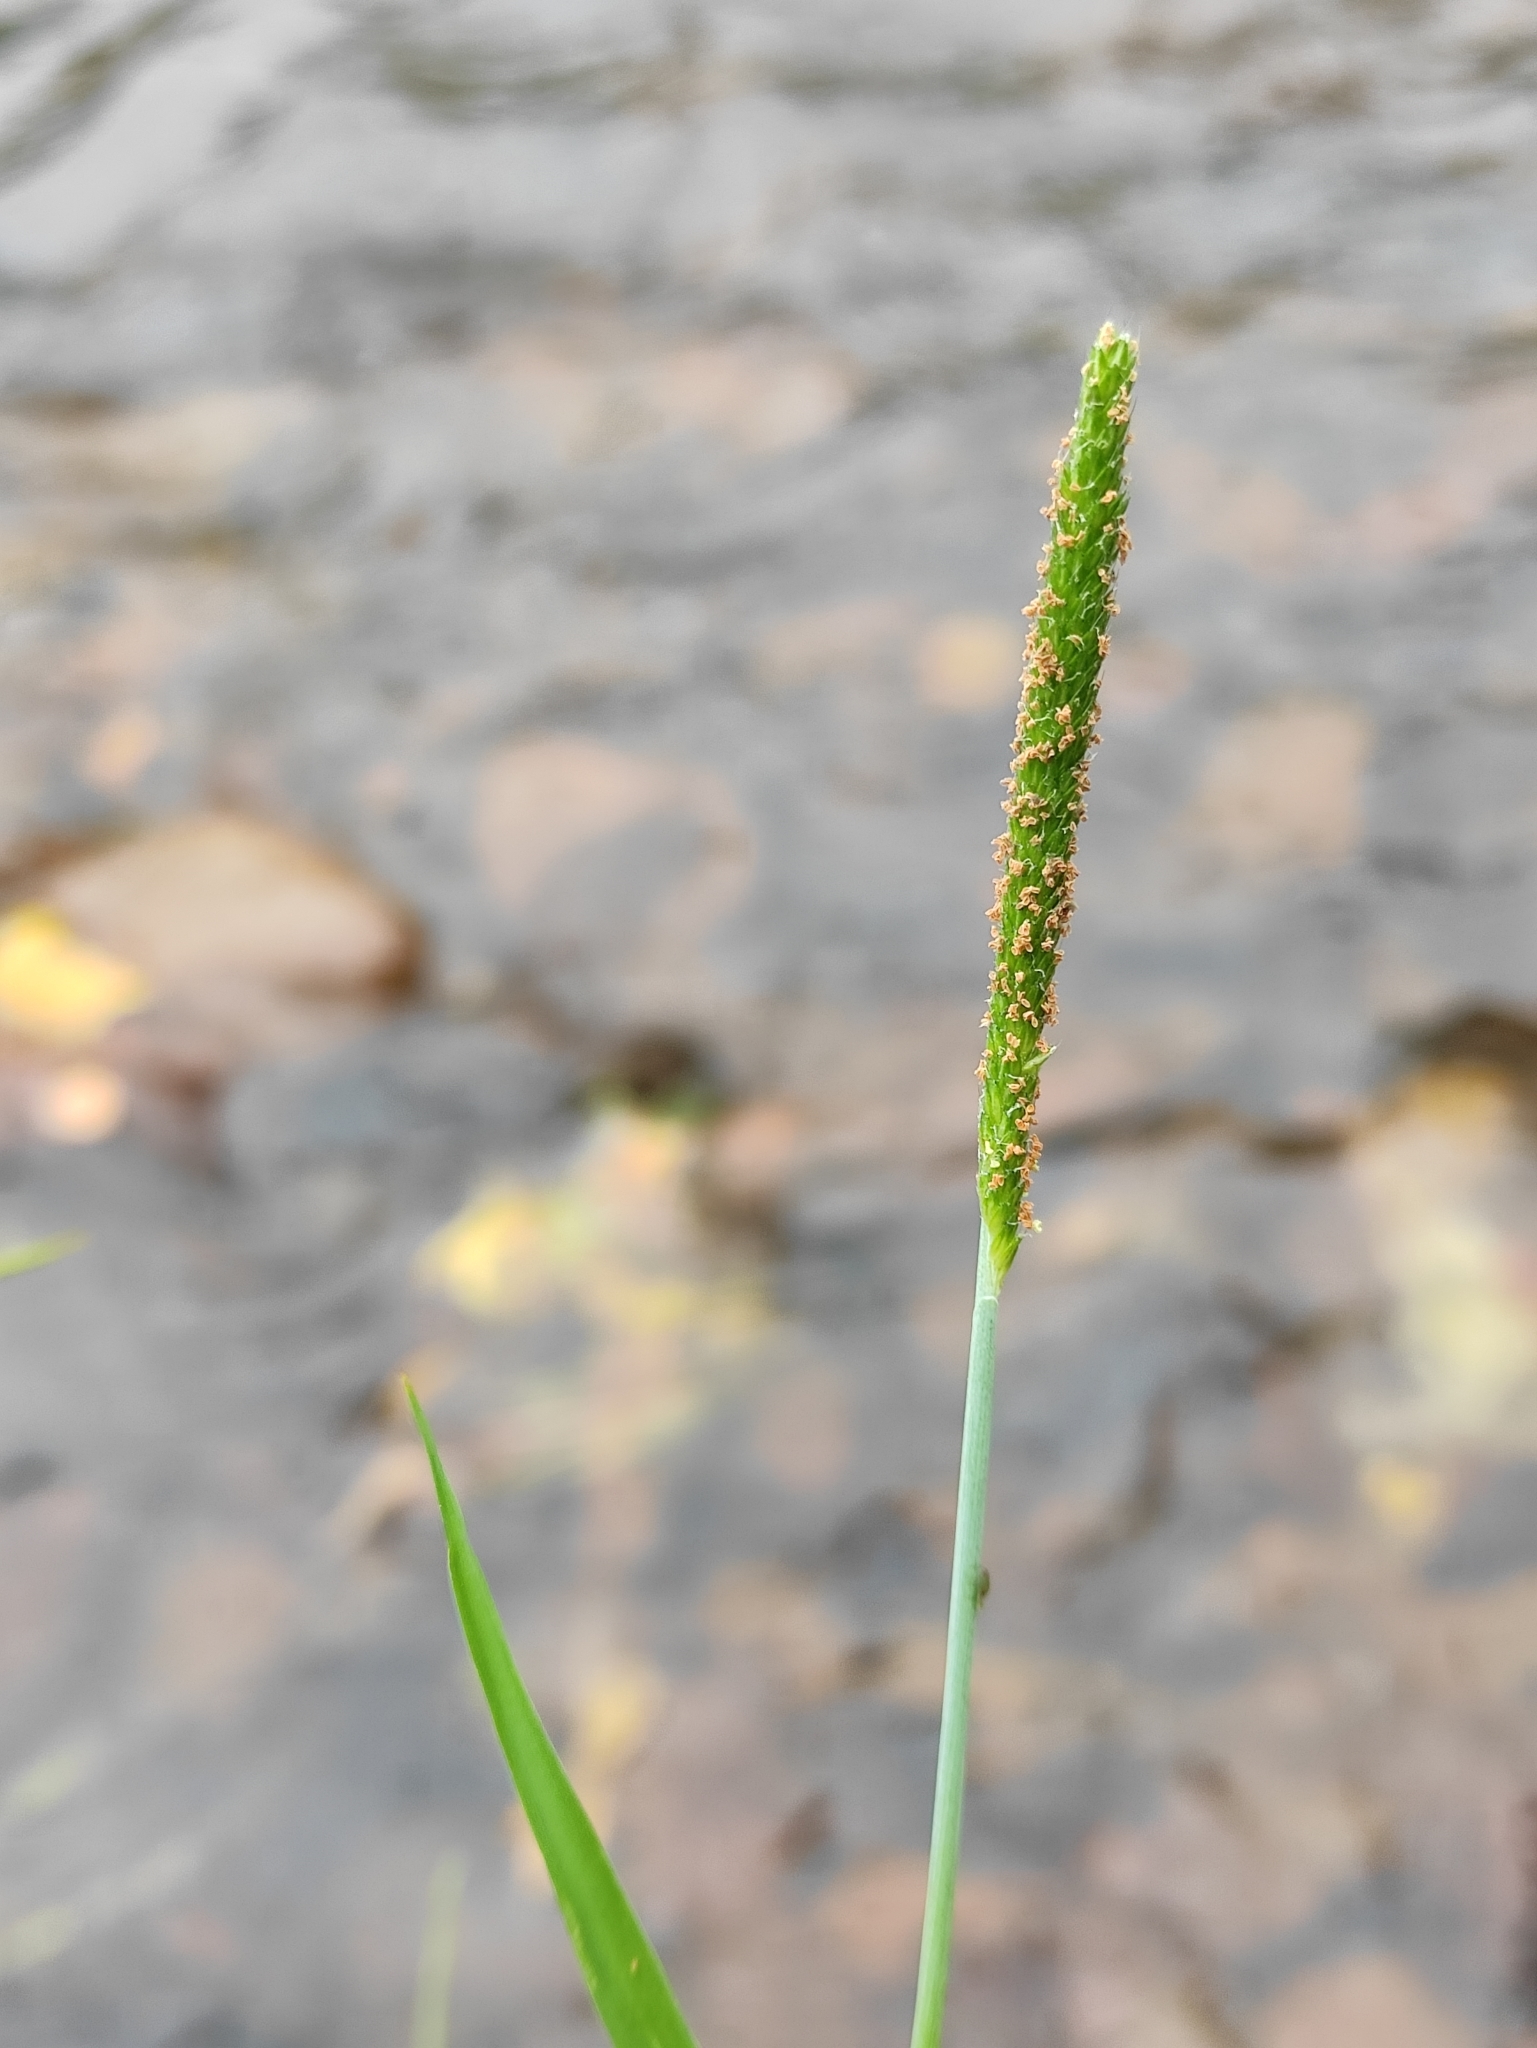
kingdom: Plantae
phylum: Tracheophyta
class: Liliopsida
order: Poales
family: Poaceae
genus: Alopecurus
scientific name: Alopecurus aequalis
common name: Orange foxtail
